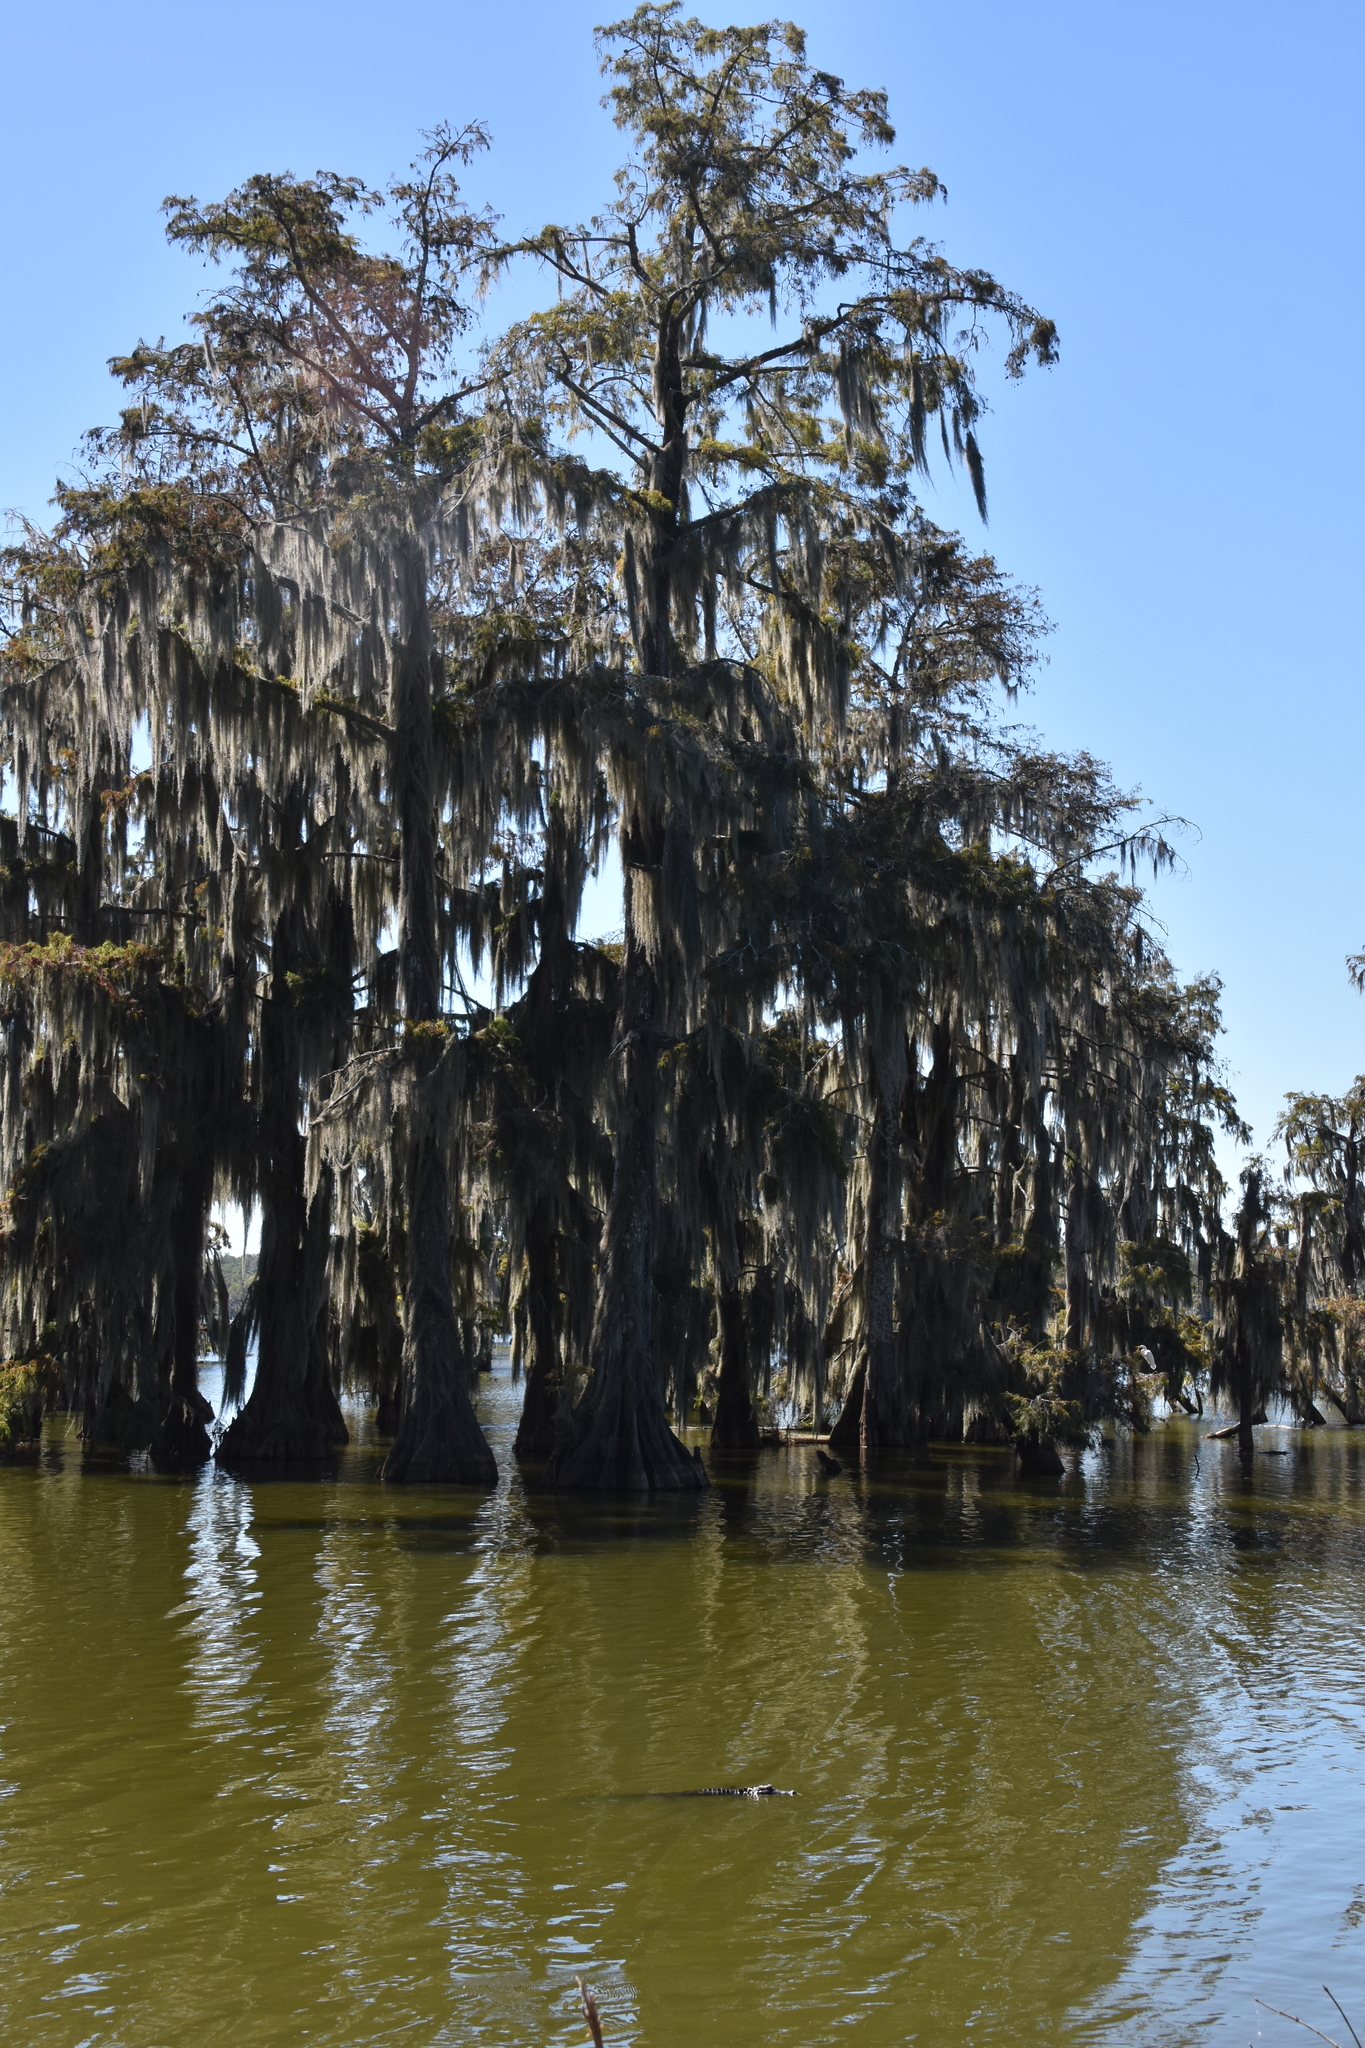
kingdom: Animalia
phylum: Chordata
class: Crocodylia
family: Alligatoridae
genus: Alligator
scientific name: Alligator mississippiensis
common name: American alligator
